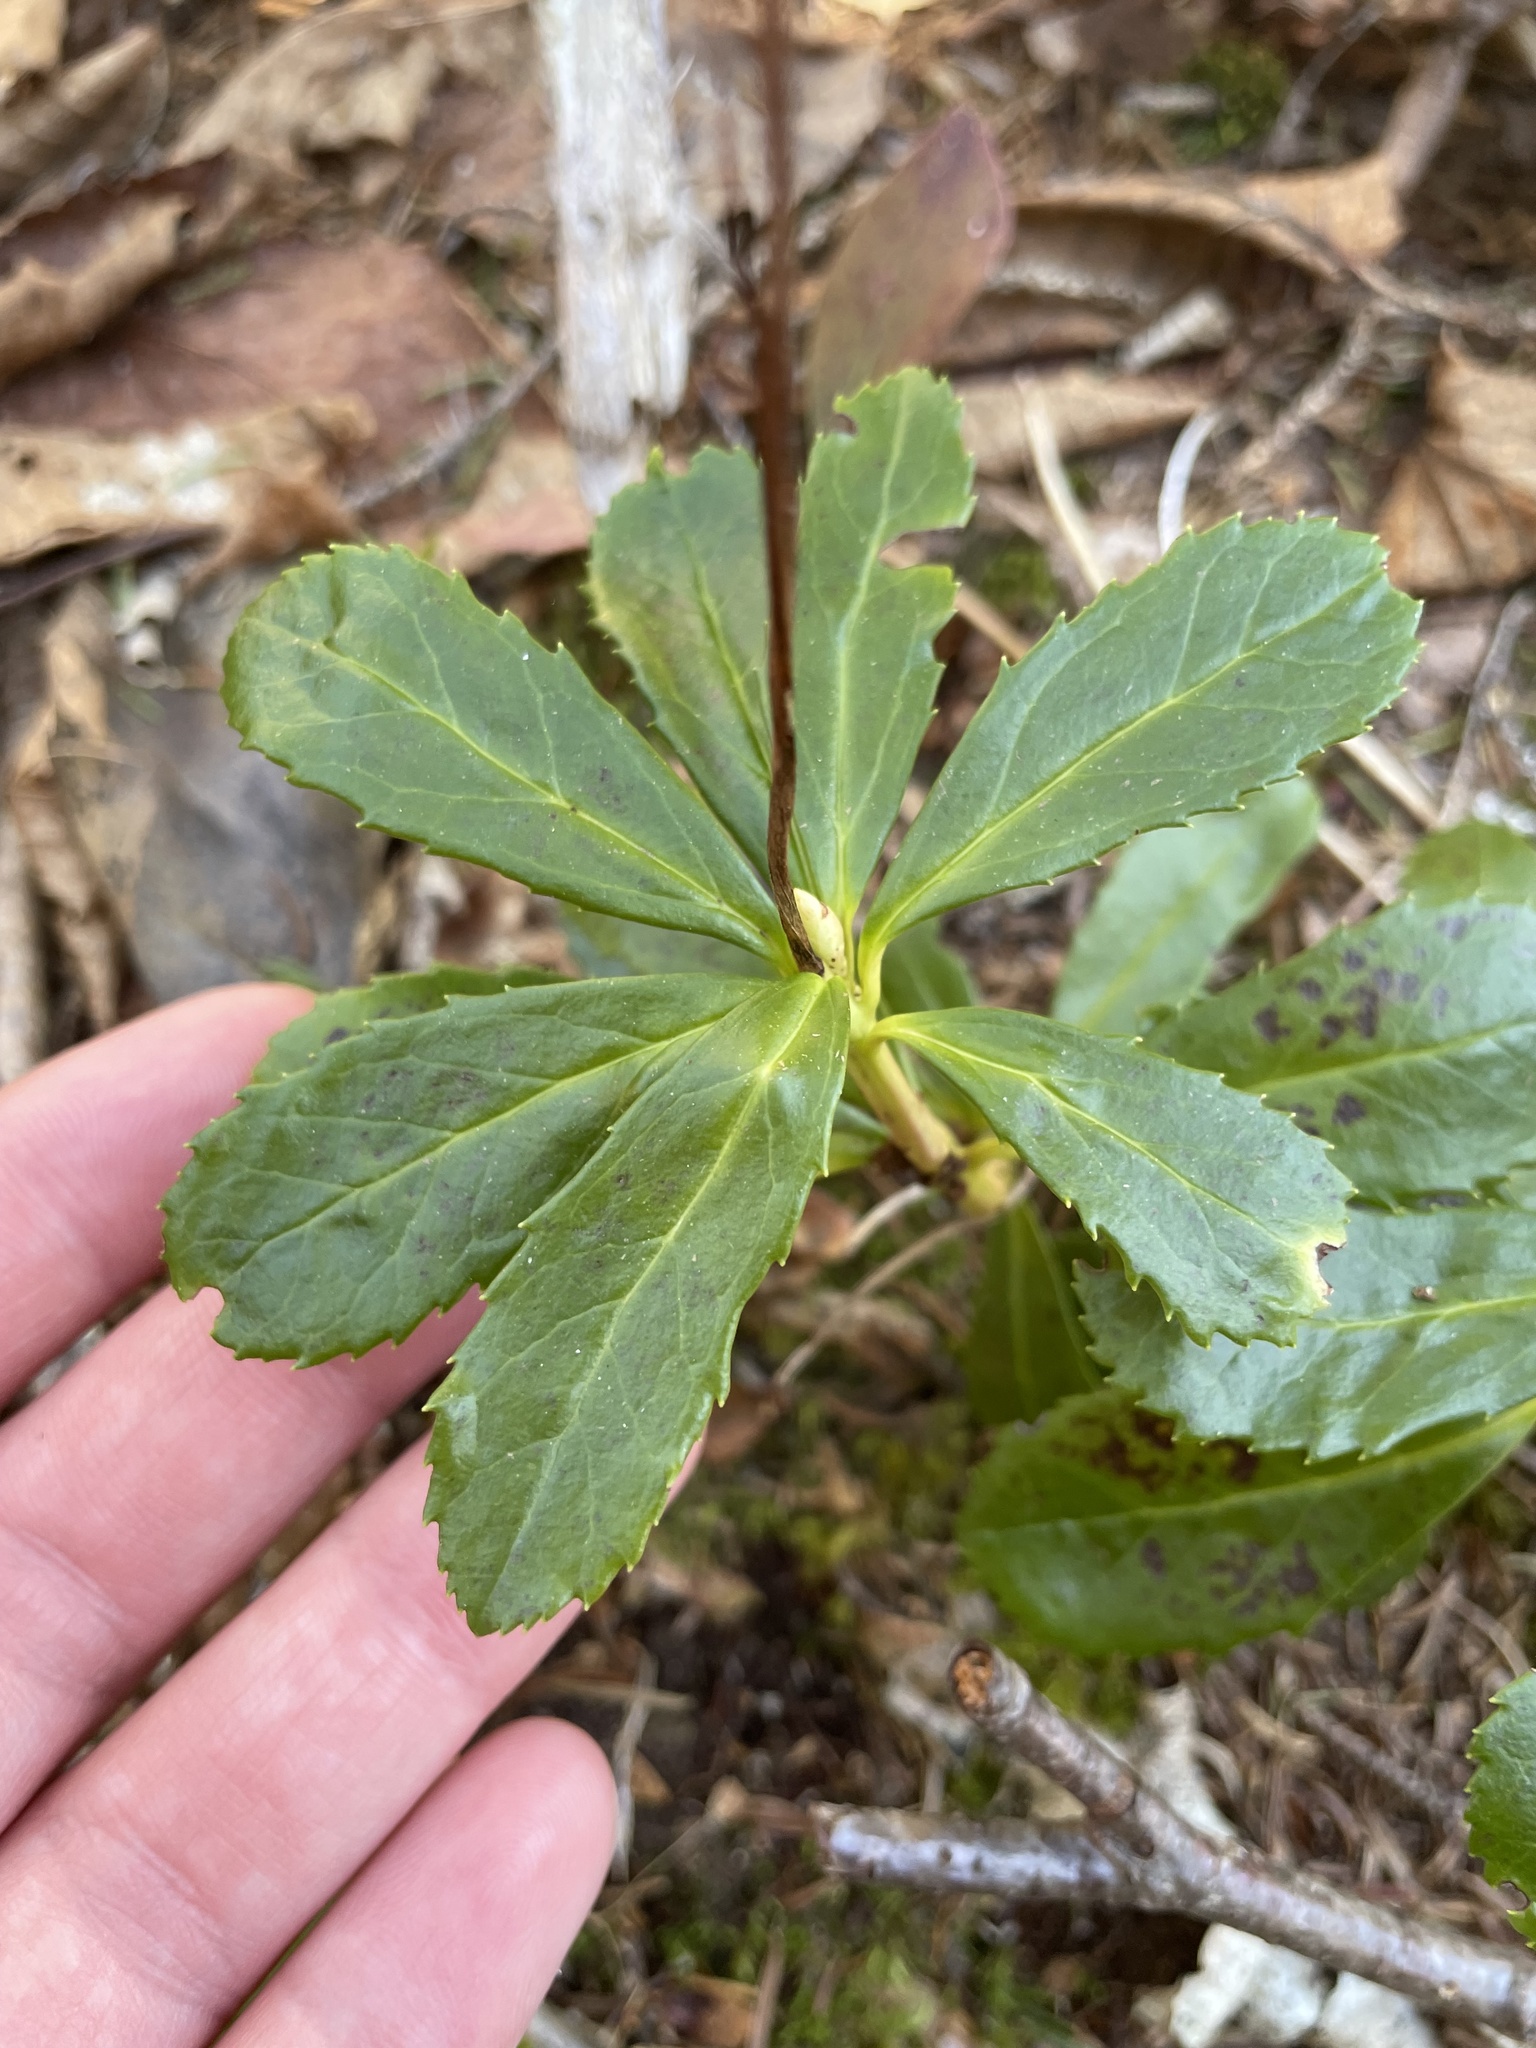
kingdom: Plantae
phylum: Tracheophyta
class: Magnoliopsida
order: Ericales
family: Ericaceae
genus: Chimaphila
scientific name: Chimaphila umbellata
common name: Pipsissewa
